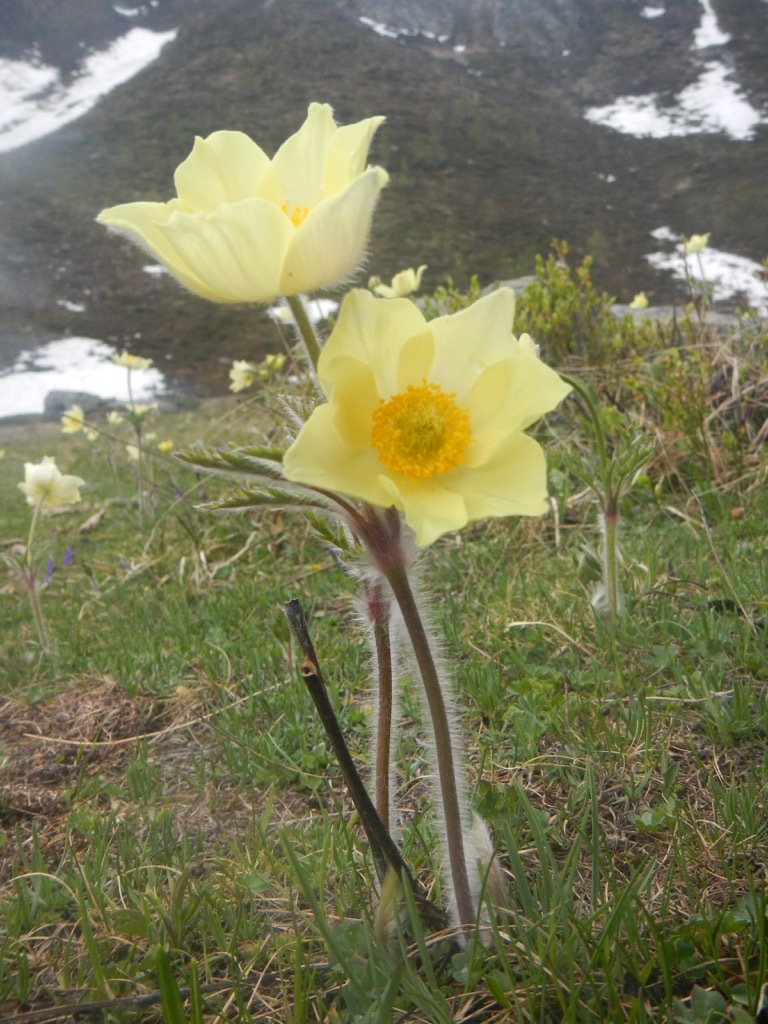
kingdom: Plantae
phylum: Tracheophyta
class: Magnoliopsida
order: Ranunculales
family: Ranunculaceae
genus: Pulsatilla
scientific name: Pulsatilla alpina
